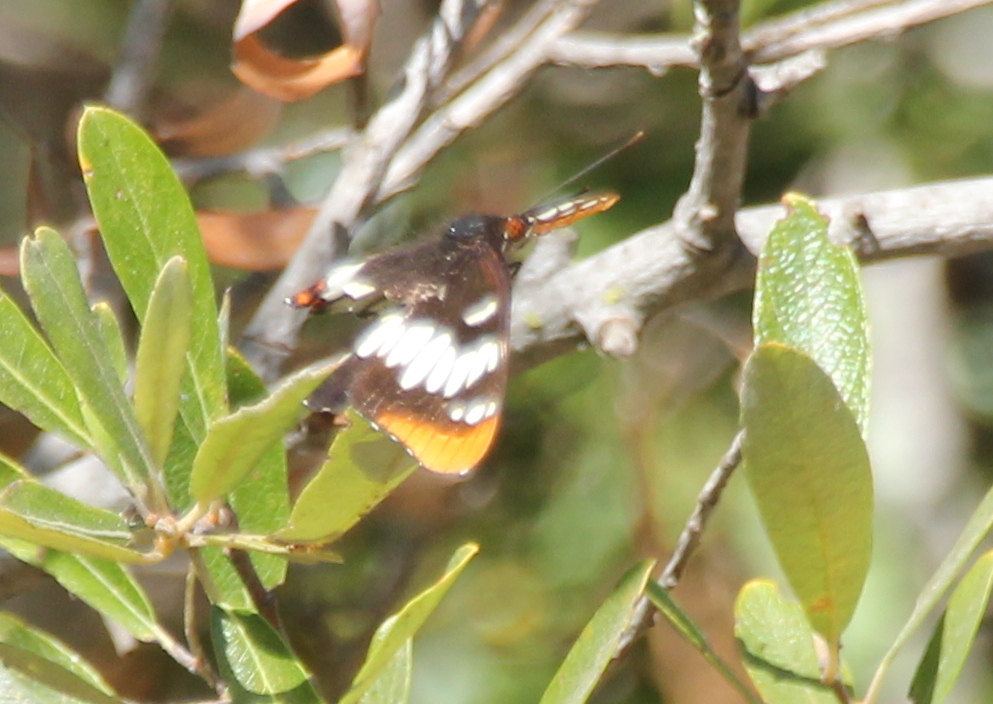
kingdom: Animalia
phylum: Arthropoda
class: Insecta
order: Lepidoptera
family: Nymphalidae
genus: Limenitis
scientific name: Limenitis lorquini
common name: Lorquin's admiral
